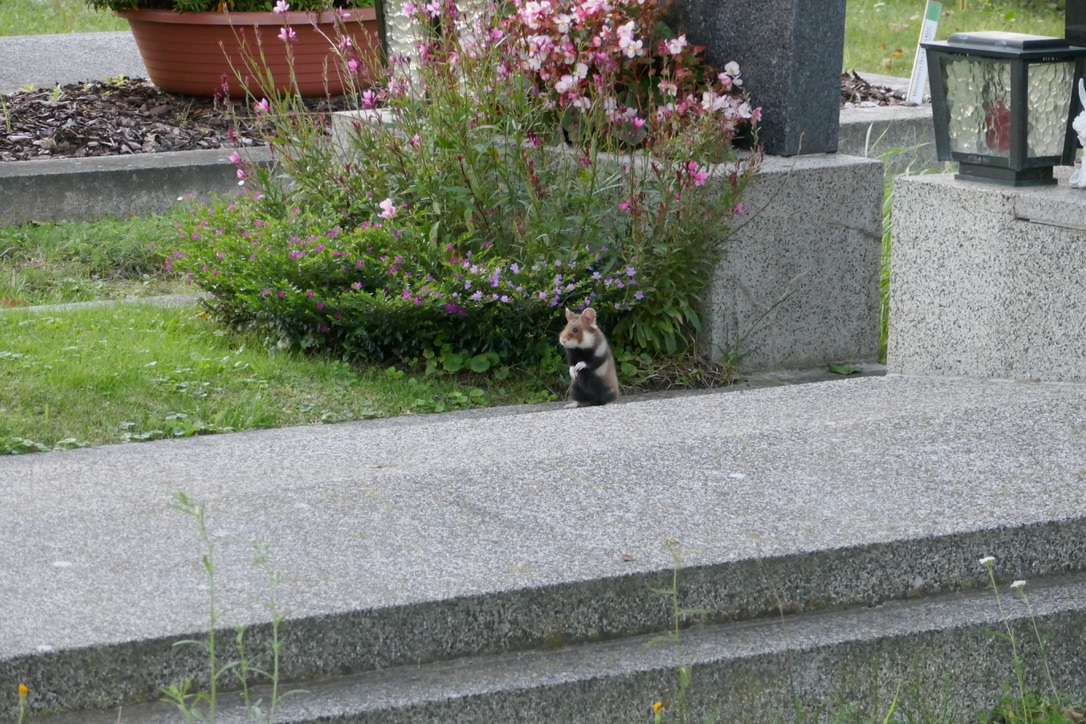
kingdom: Animalia
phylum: Chordata
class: Mammalia
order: Rodentia
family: Cricetidae
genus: Cricetus
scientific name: Cricetus cricetus
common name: Common hamster
